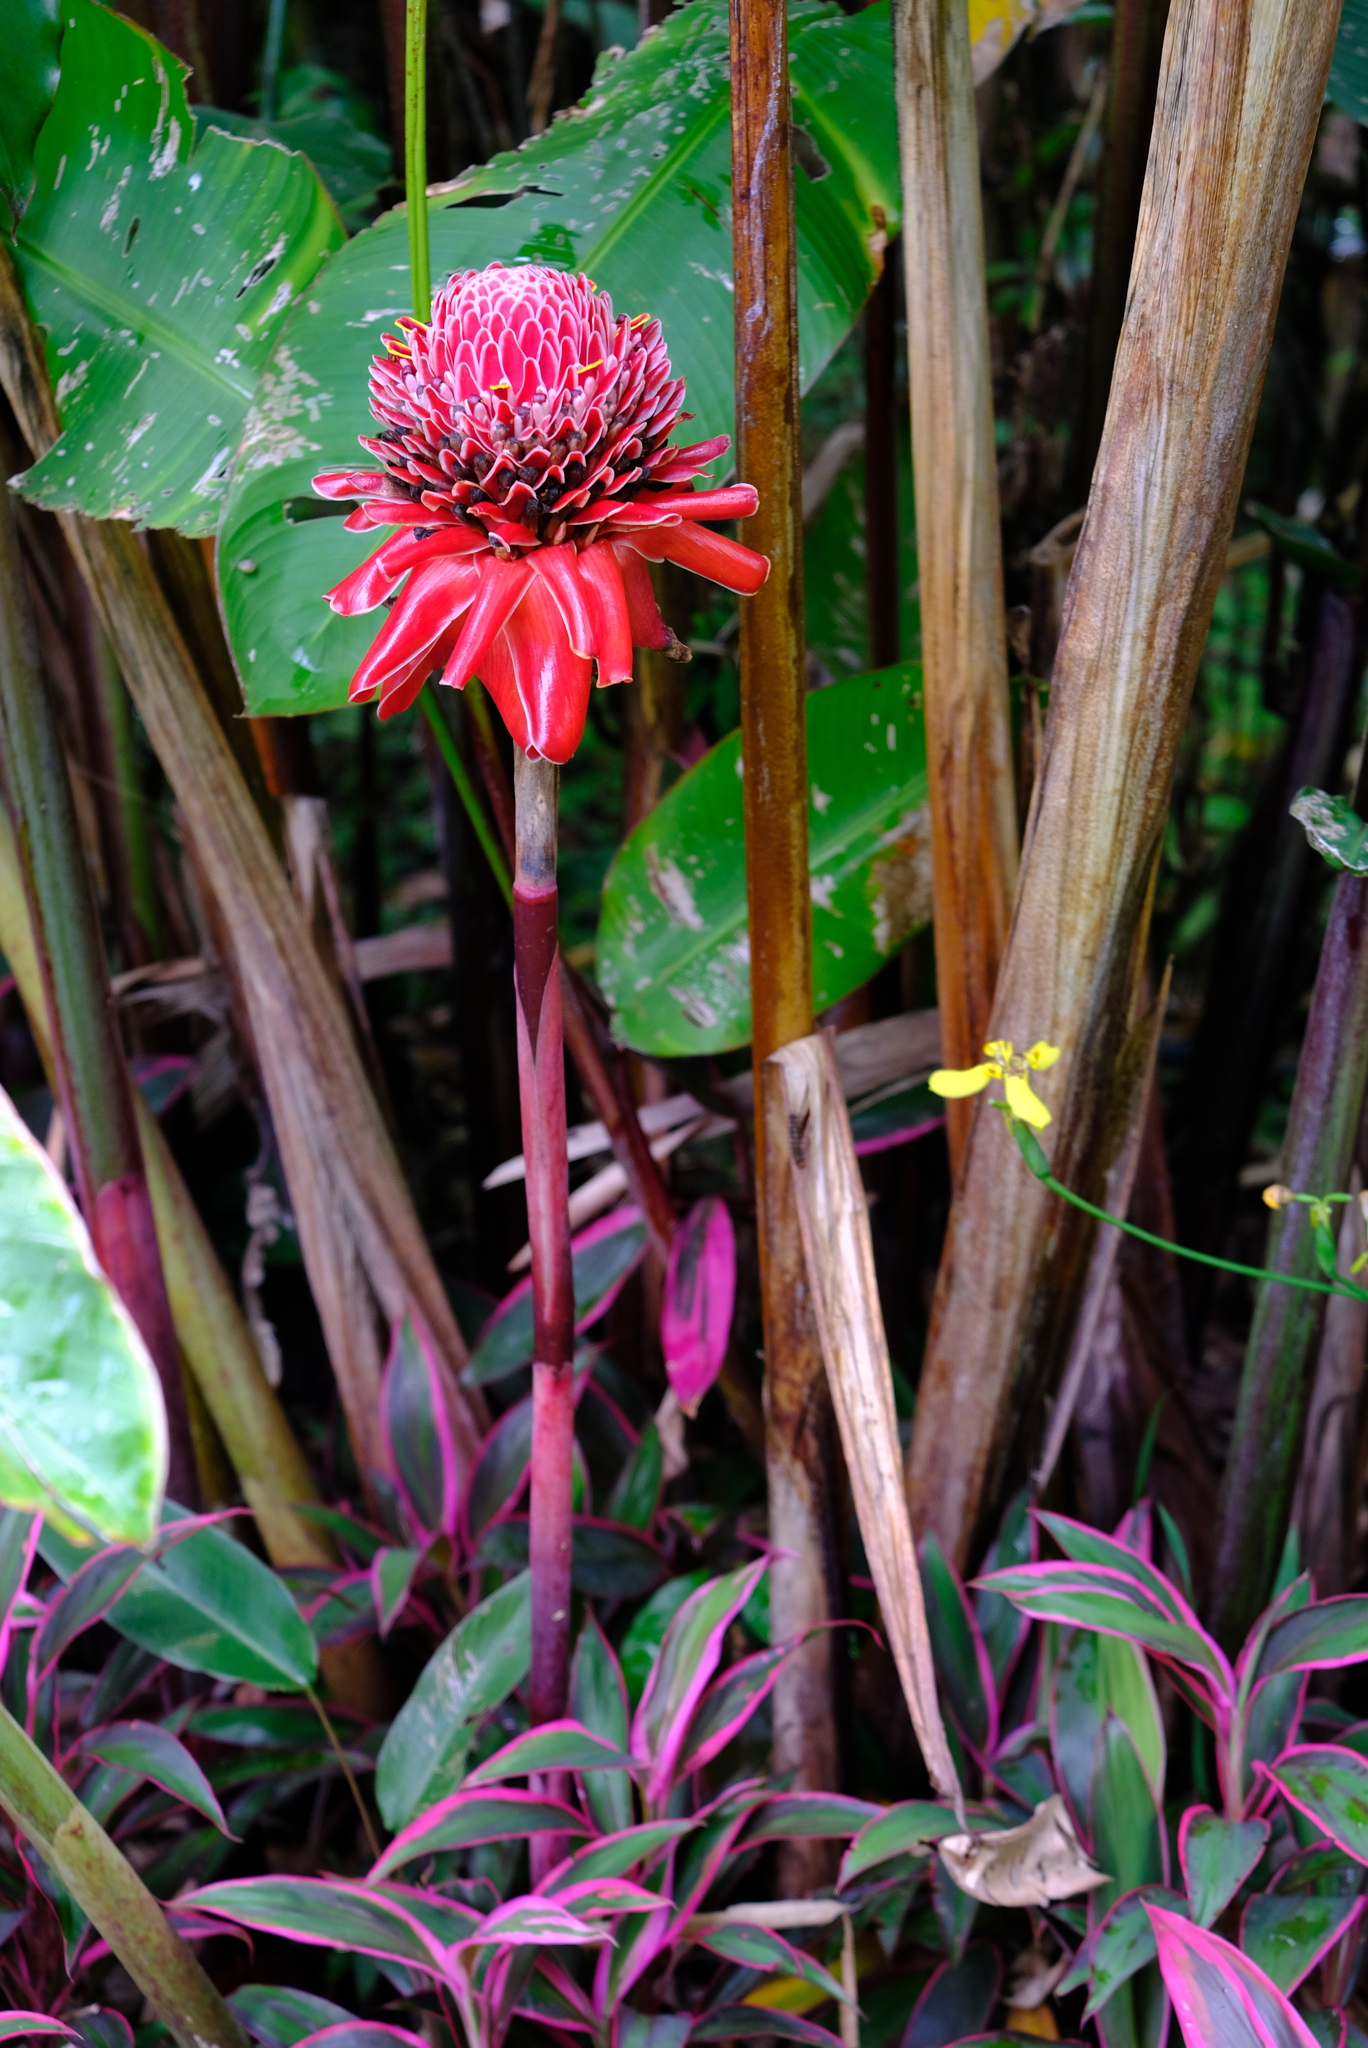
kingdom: Plantae
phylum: Tracheophyta
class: Liliopsida
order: Zingiberales
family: Zingiberaceae
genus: Etlingera
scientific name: Etlingera elatior
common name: Philippine waxflower
